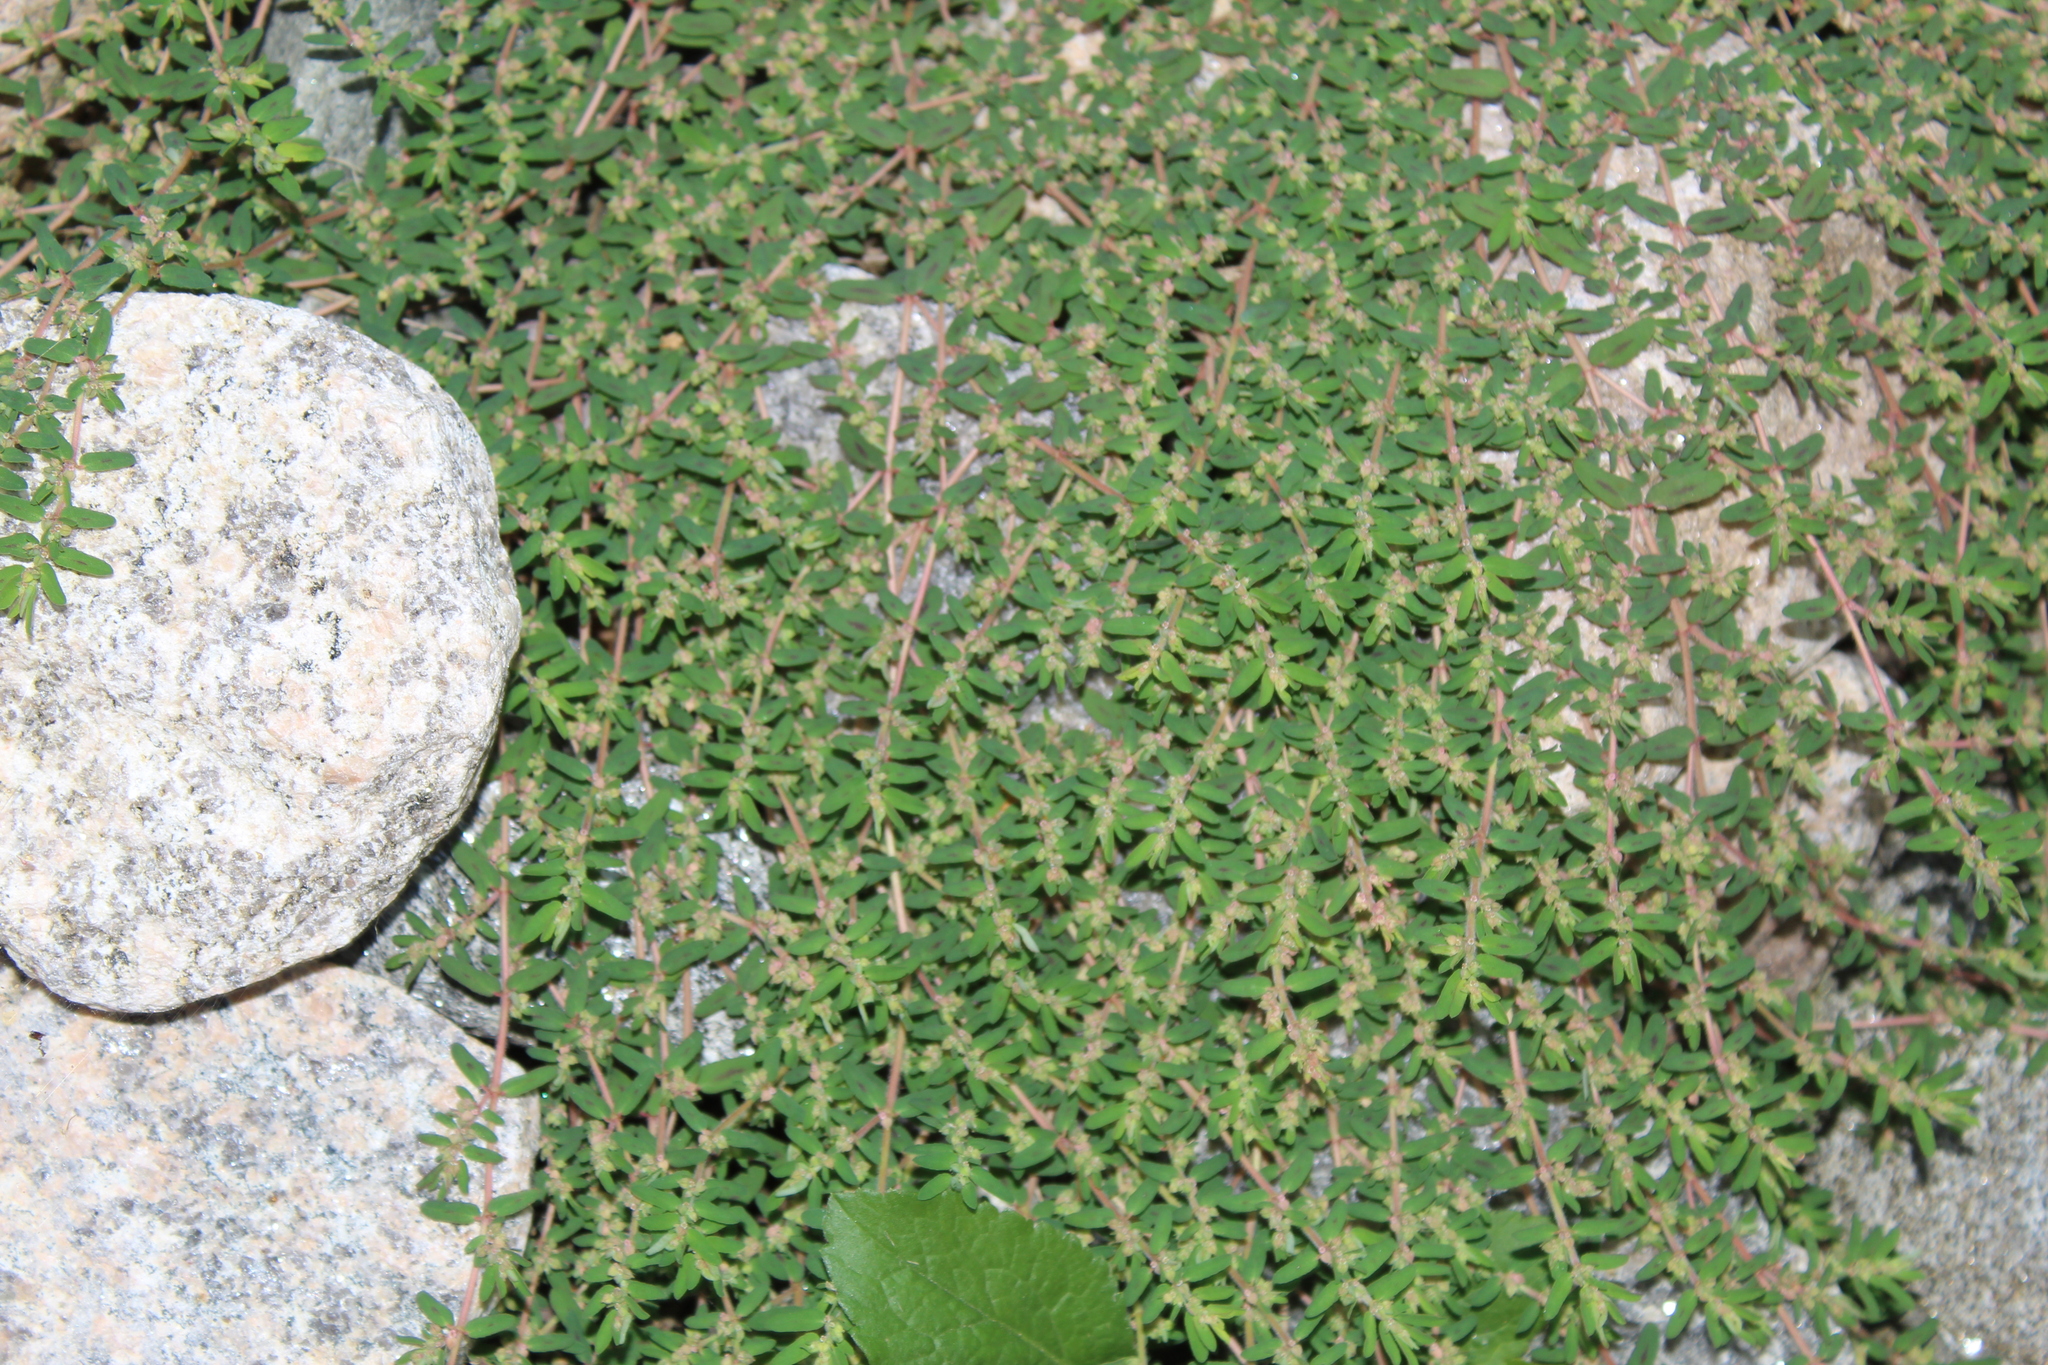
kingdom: Plantae
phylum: Tracheophyta
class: Magnoliopsida
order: Malpighiales
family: Euphorbiaceae
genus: Euphorbia
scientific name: Euphorbia maculata
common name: Spotted spurge
